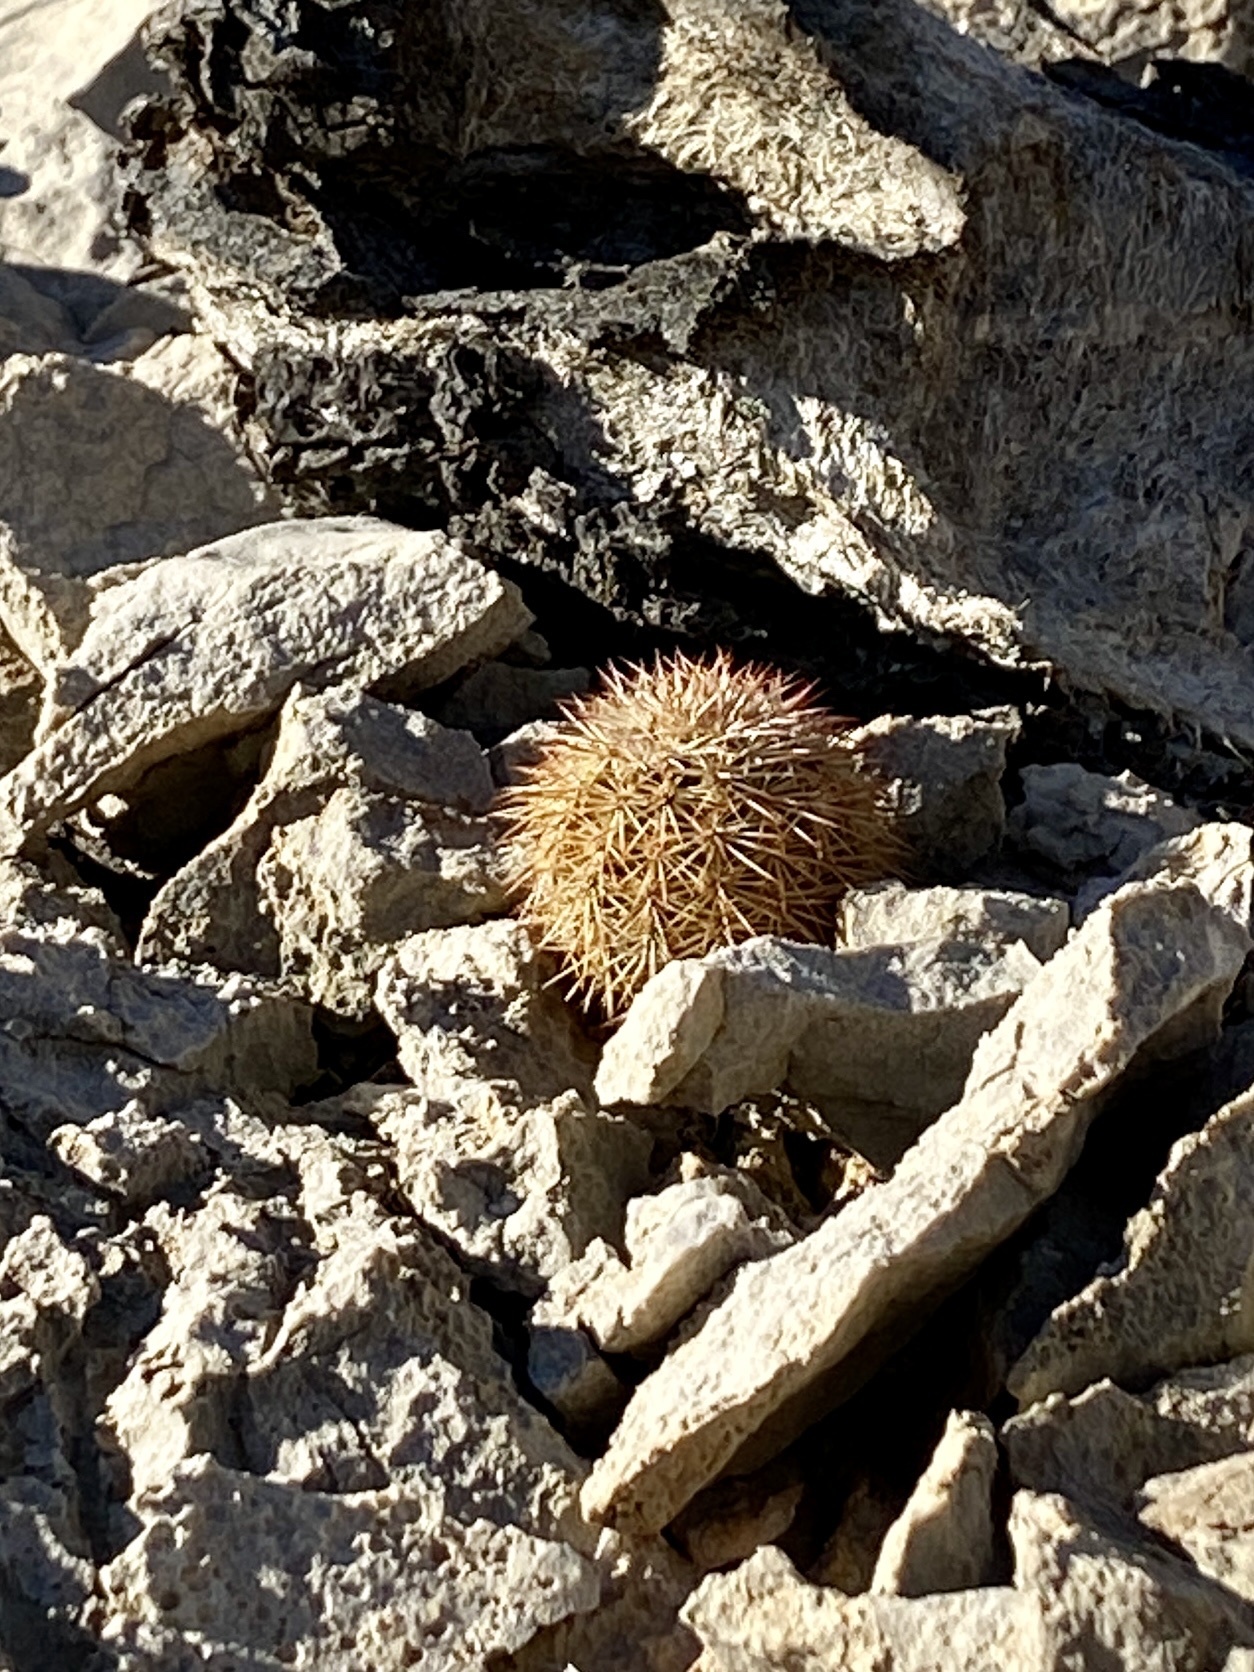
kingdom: Plantae
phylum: Tracheophyta
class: Magnoliopsida
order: Caryophyllales
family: Cactaceae
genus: Echinocereus
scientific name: Echinocereus dasyacanthus
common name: Spiny hedgehog cactus
